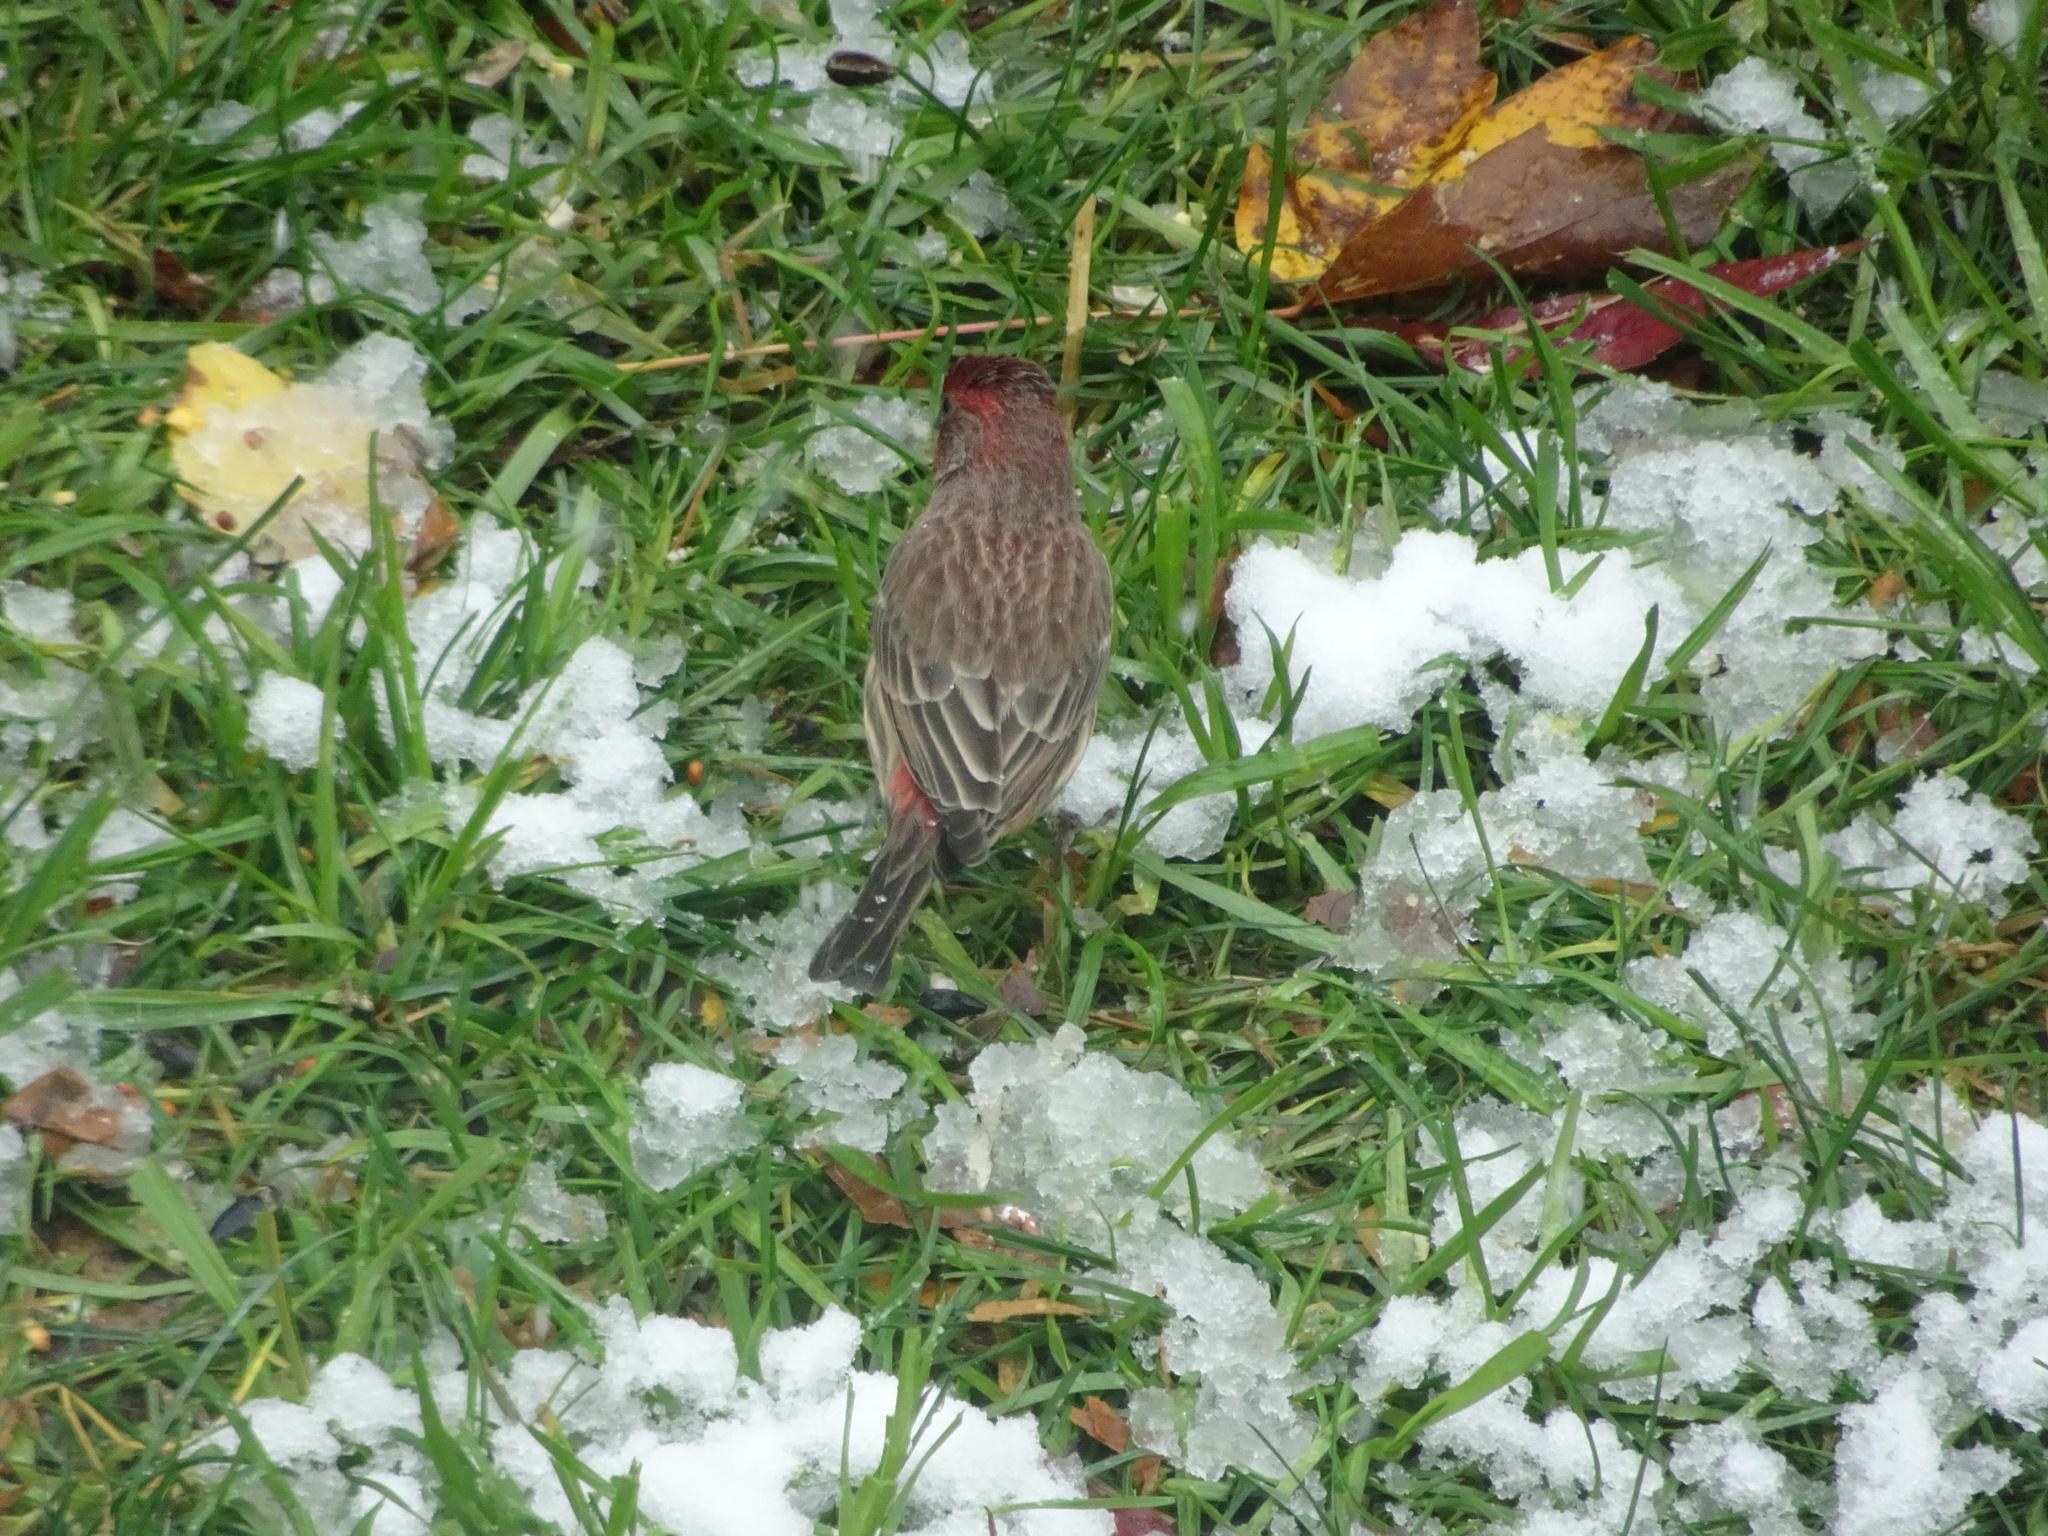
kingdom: Animalia
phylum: Chordata
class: Aves
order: Passeriformes
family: Fringillidae
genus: Haemorhous
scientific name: Haemorhous mexicanus
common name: House finch
